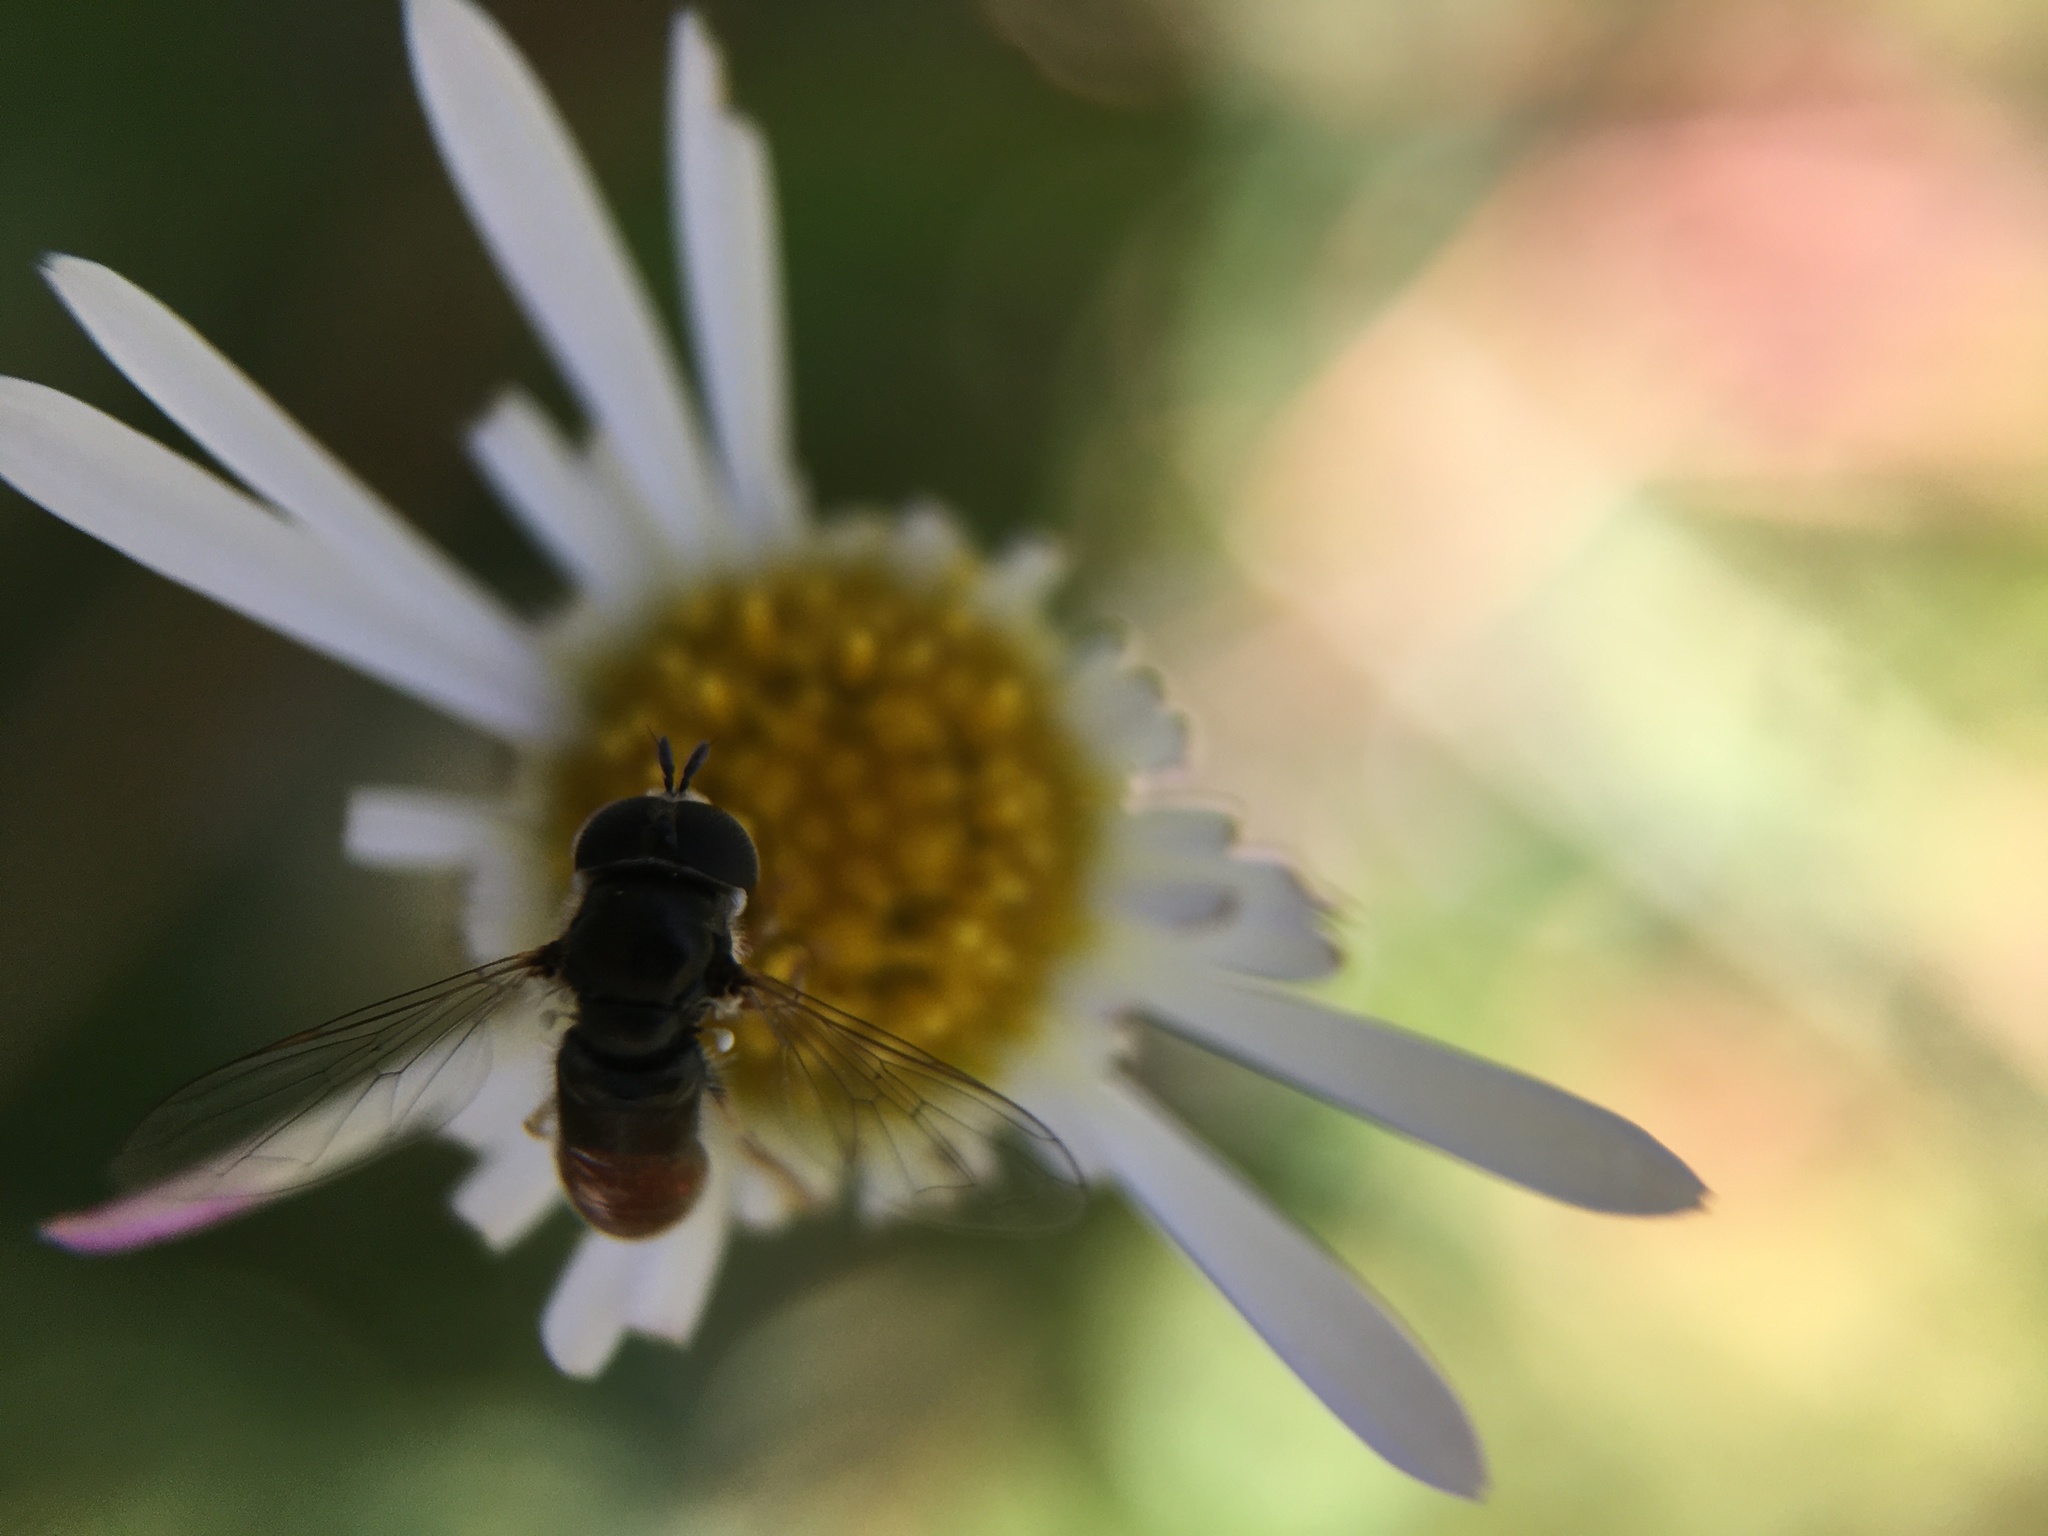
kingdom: Animalia
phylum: Arthropoda
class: Insecta
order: Diptera
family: Syrphidae
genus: Paragus
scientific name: Paragus haemorrhous
